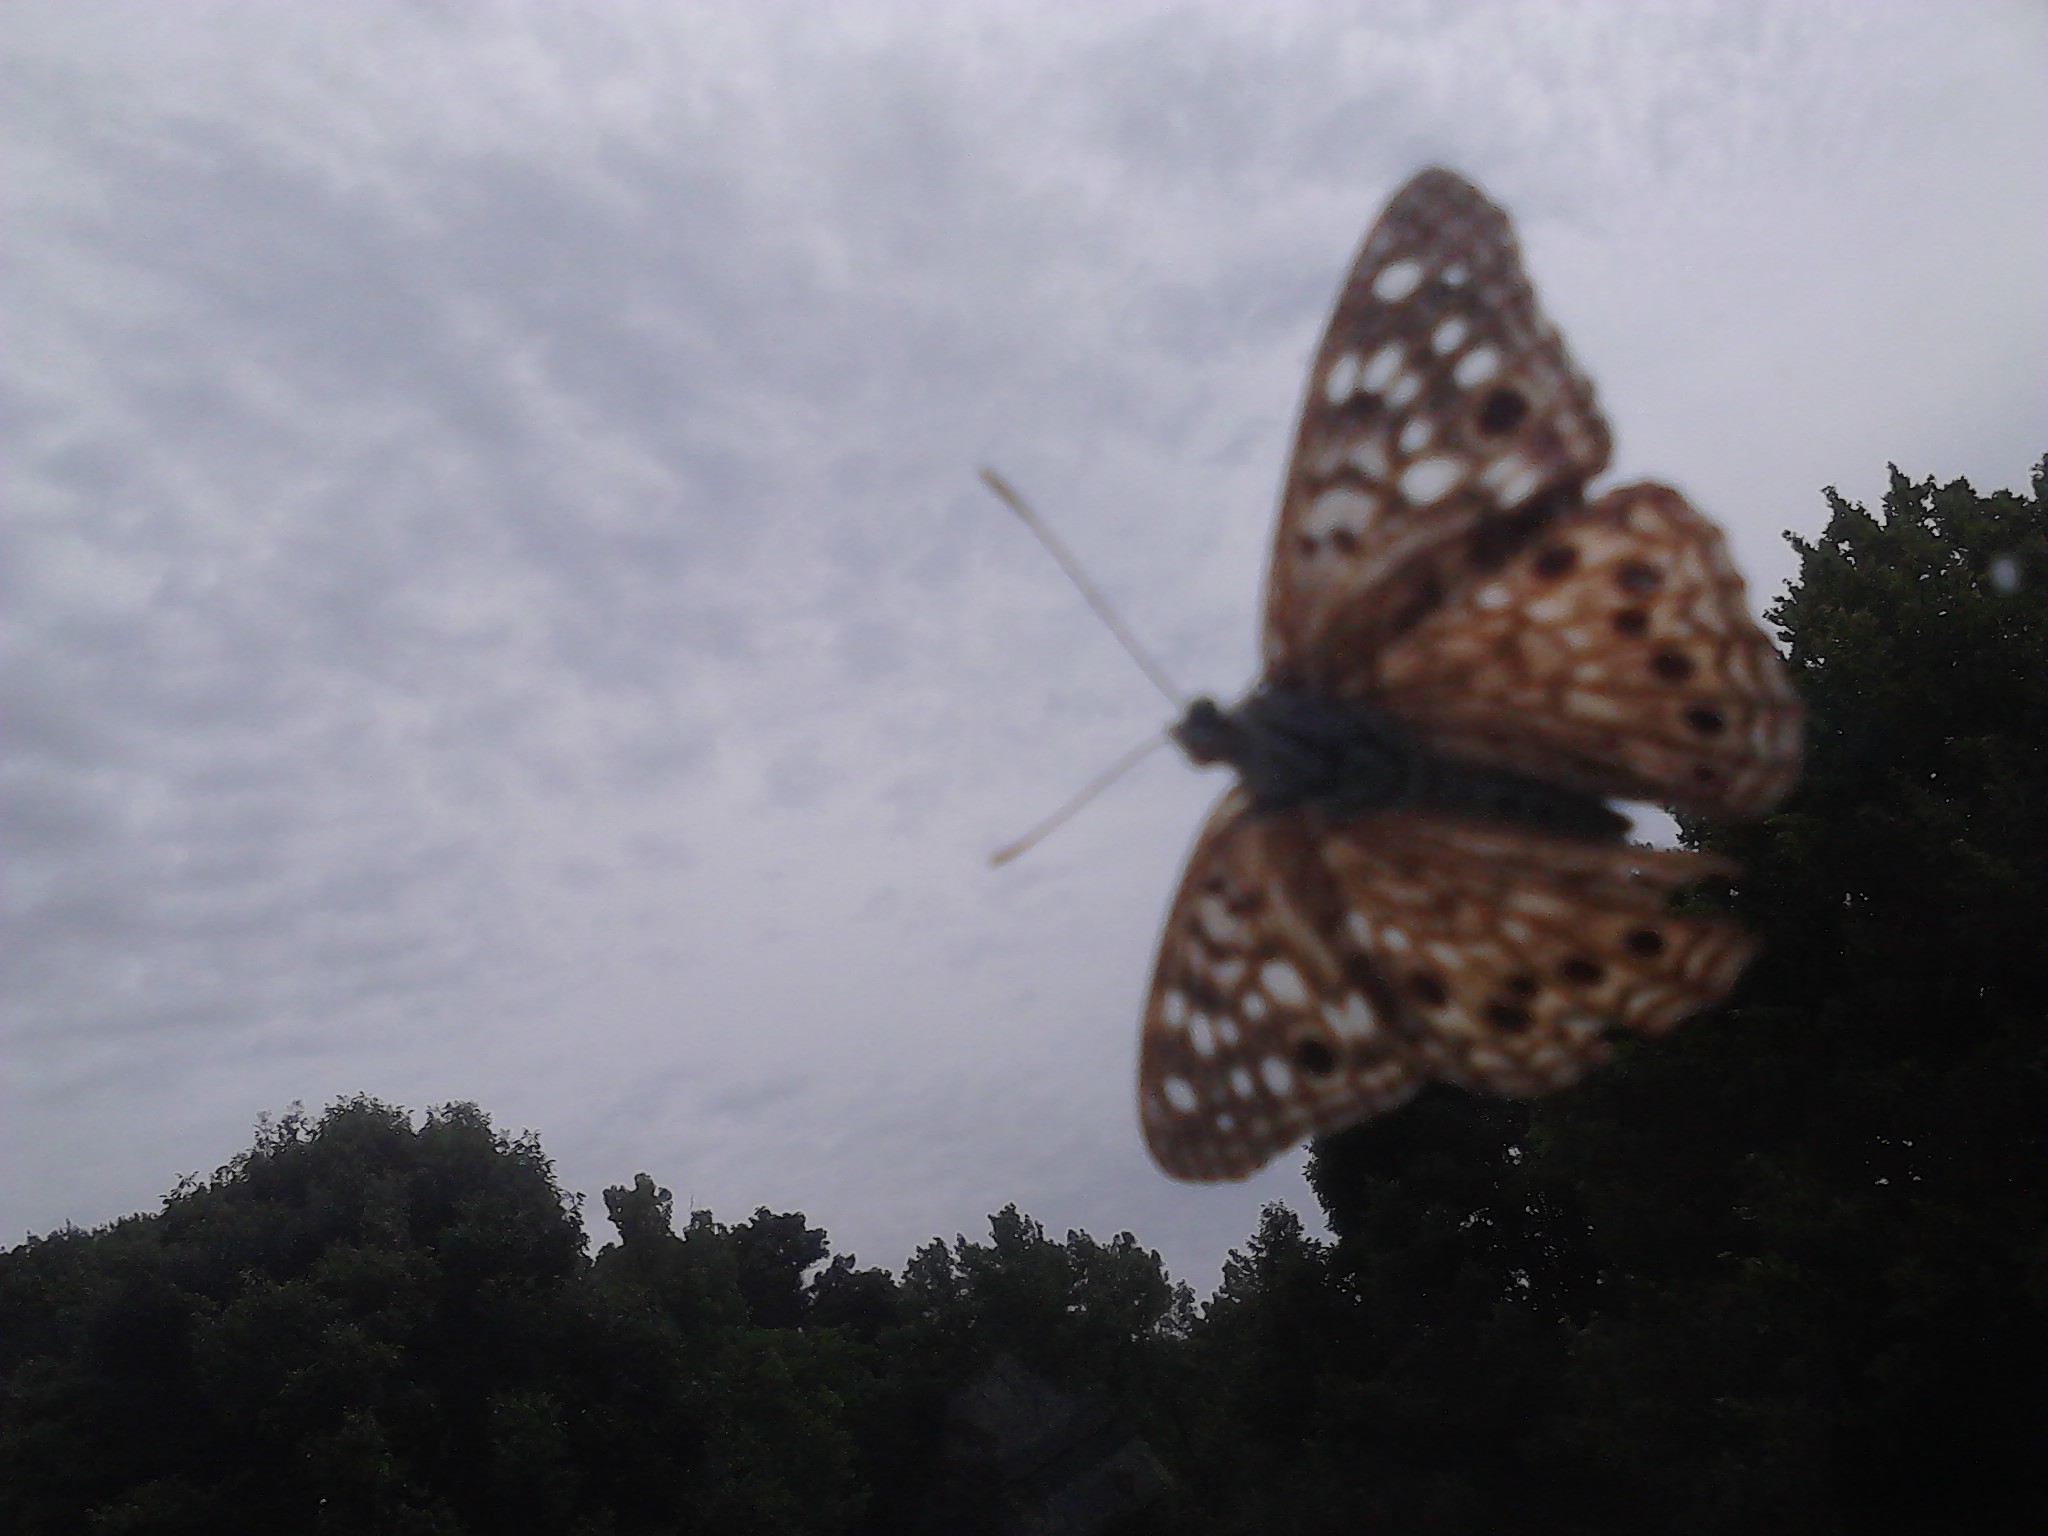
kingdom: Animalia
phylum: Arthropoda
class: Insecta
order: Lepidoptera
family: Nymphalidae
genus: Asterocampa
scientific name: Asterocampa celtis
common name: Hackberry emperor
